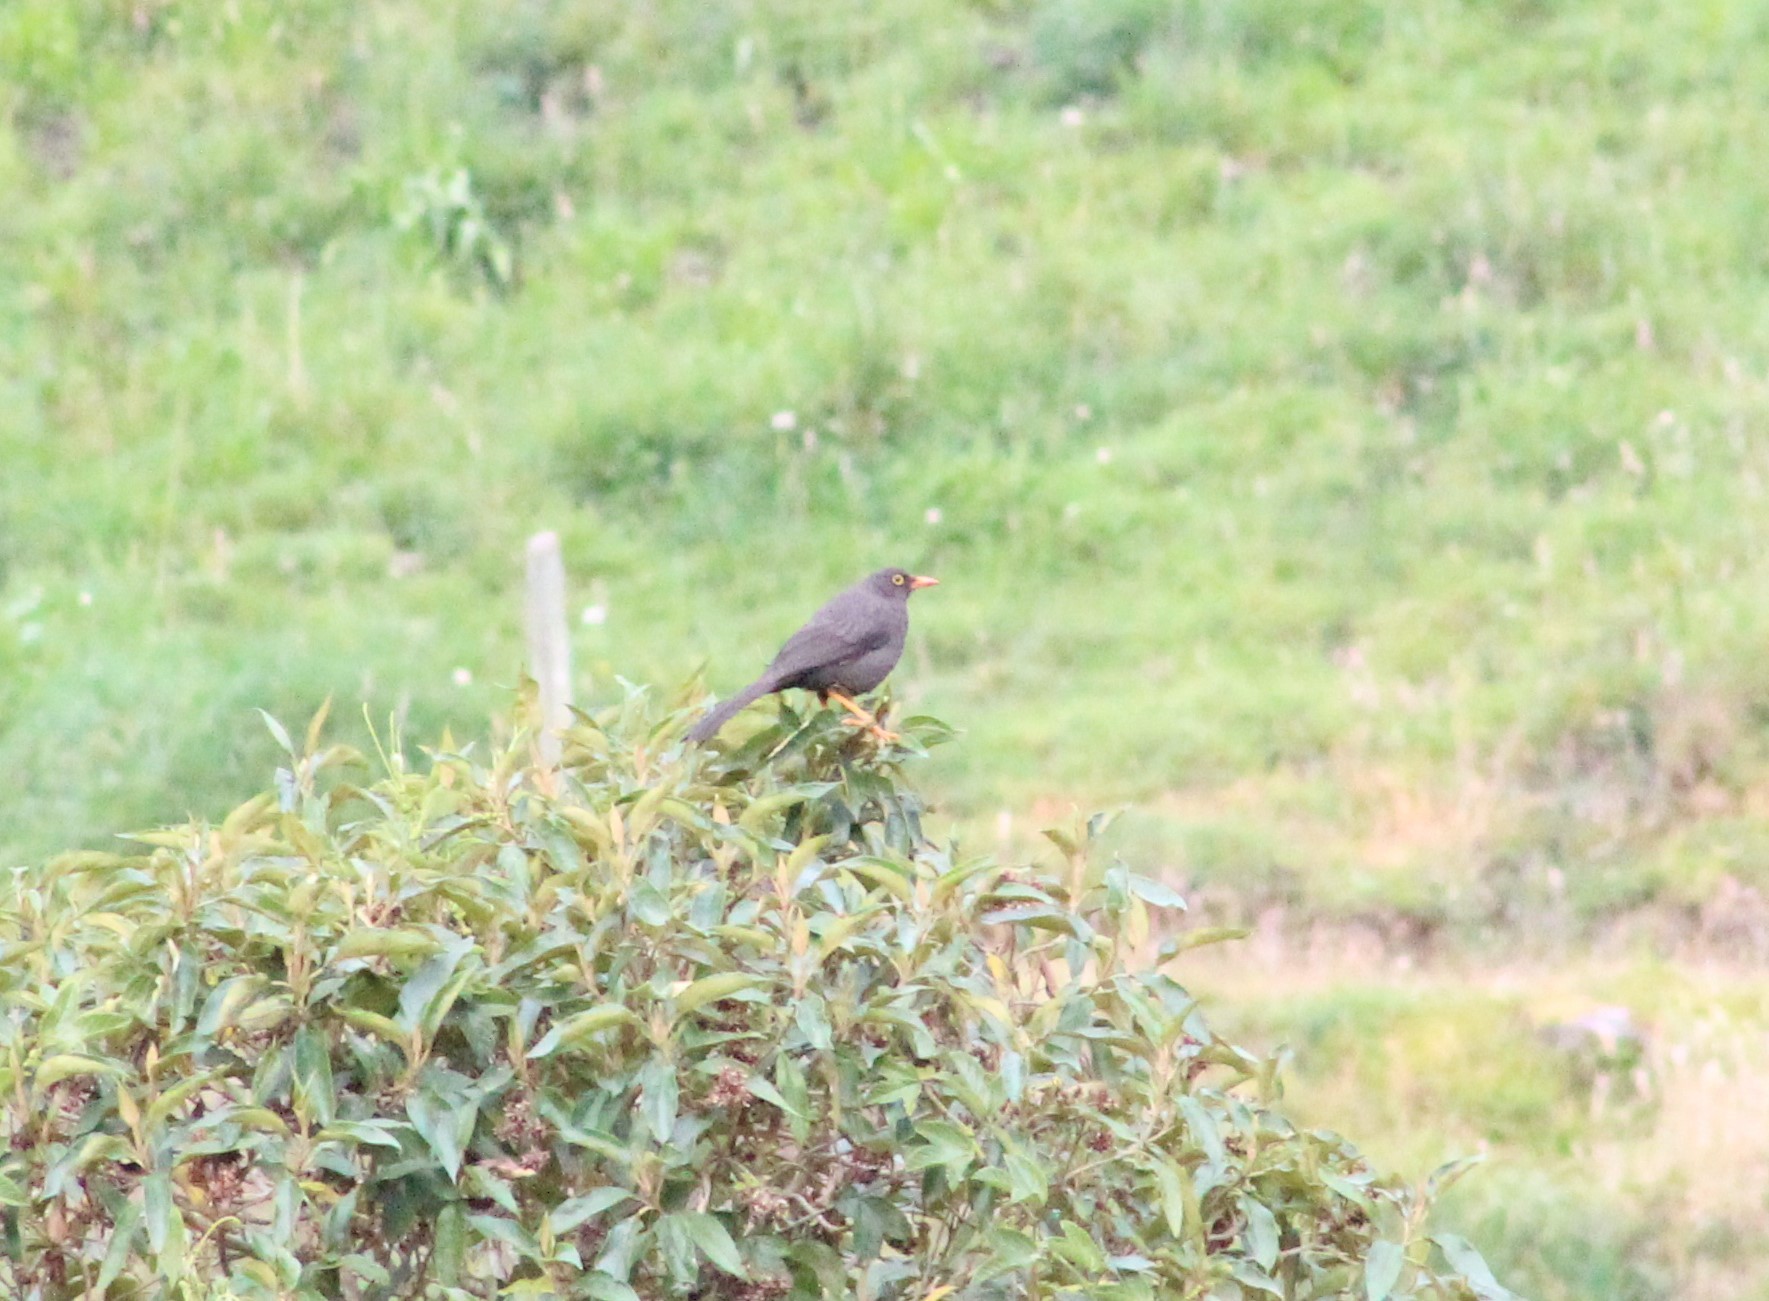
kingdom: Animalia
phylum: Chordata
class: Aves
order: Passeriformes
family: Turdidae
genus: Turdus
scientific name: Turdus fuscater
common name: Great thrush
